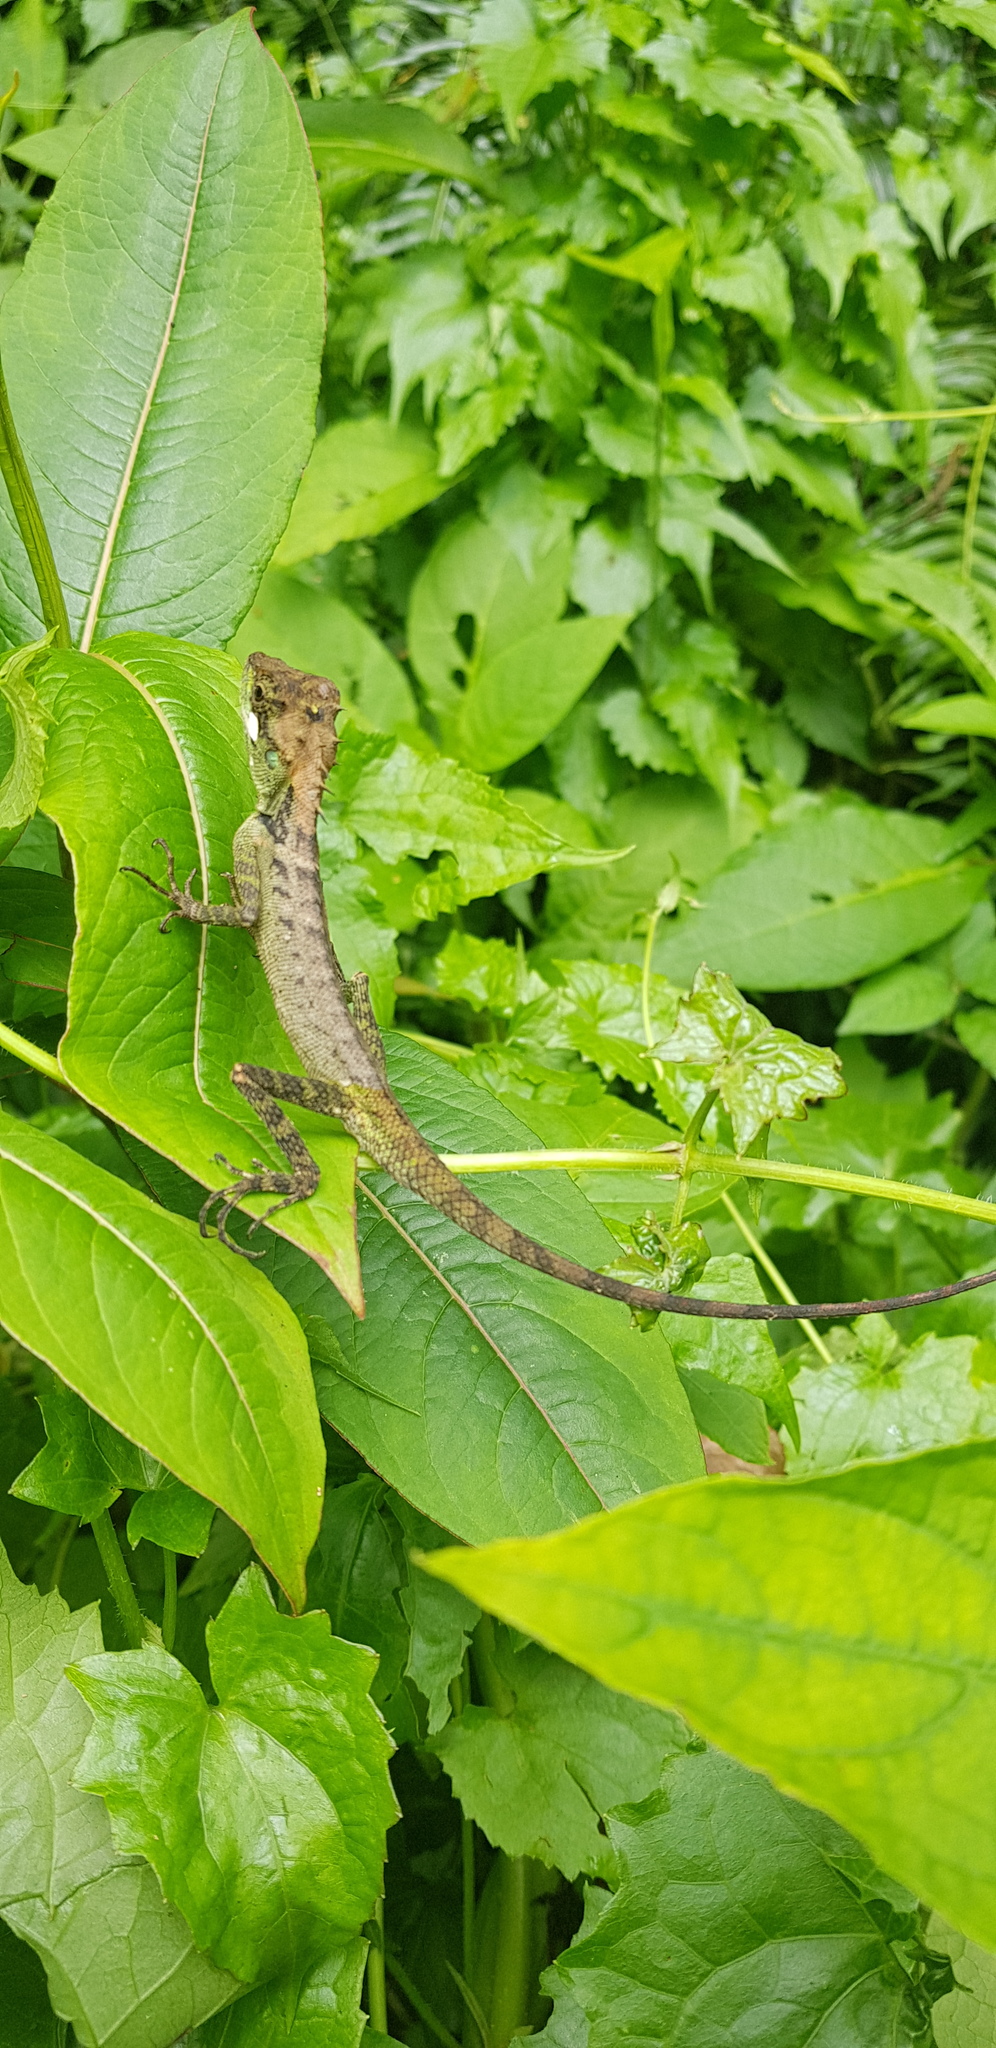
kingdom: Animalia
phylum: Chordata
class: Squamata
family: Agamidae
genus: Monilesaurus
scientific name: Monilesaurus ellioti
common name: Elliot's forest lizard
